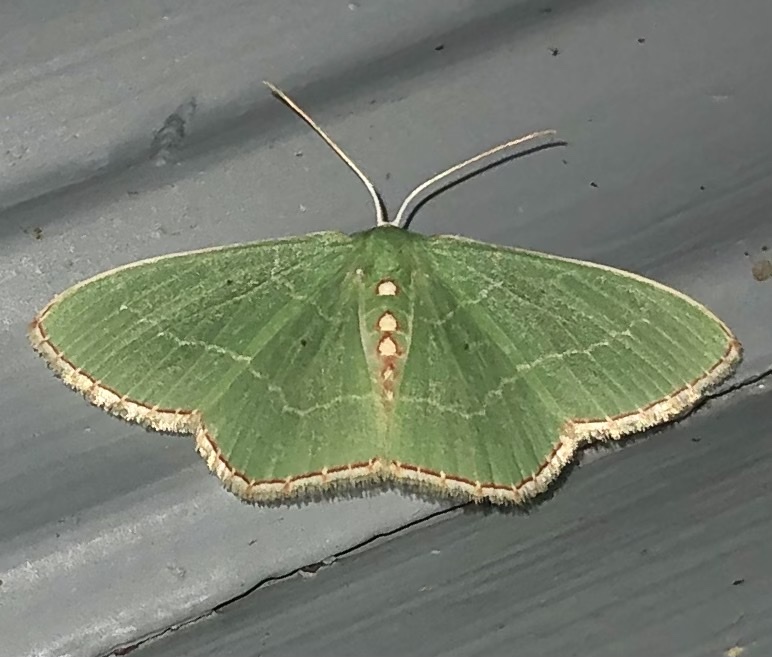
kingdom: Animalia
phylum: Arthropoda
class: Insecta
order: Lepidoptera
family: Geometridae
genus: Nemoria
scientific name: Nemoria lixaria
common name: Red-bordered emerald
